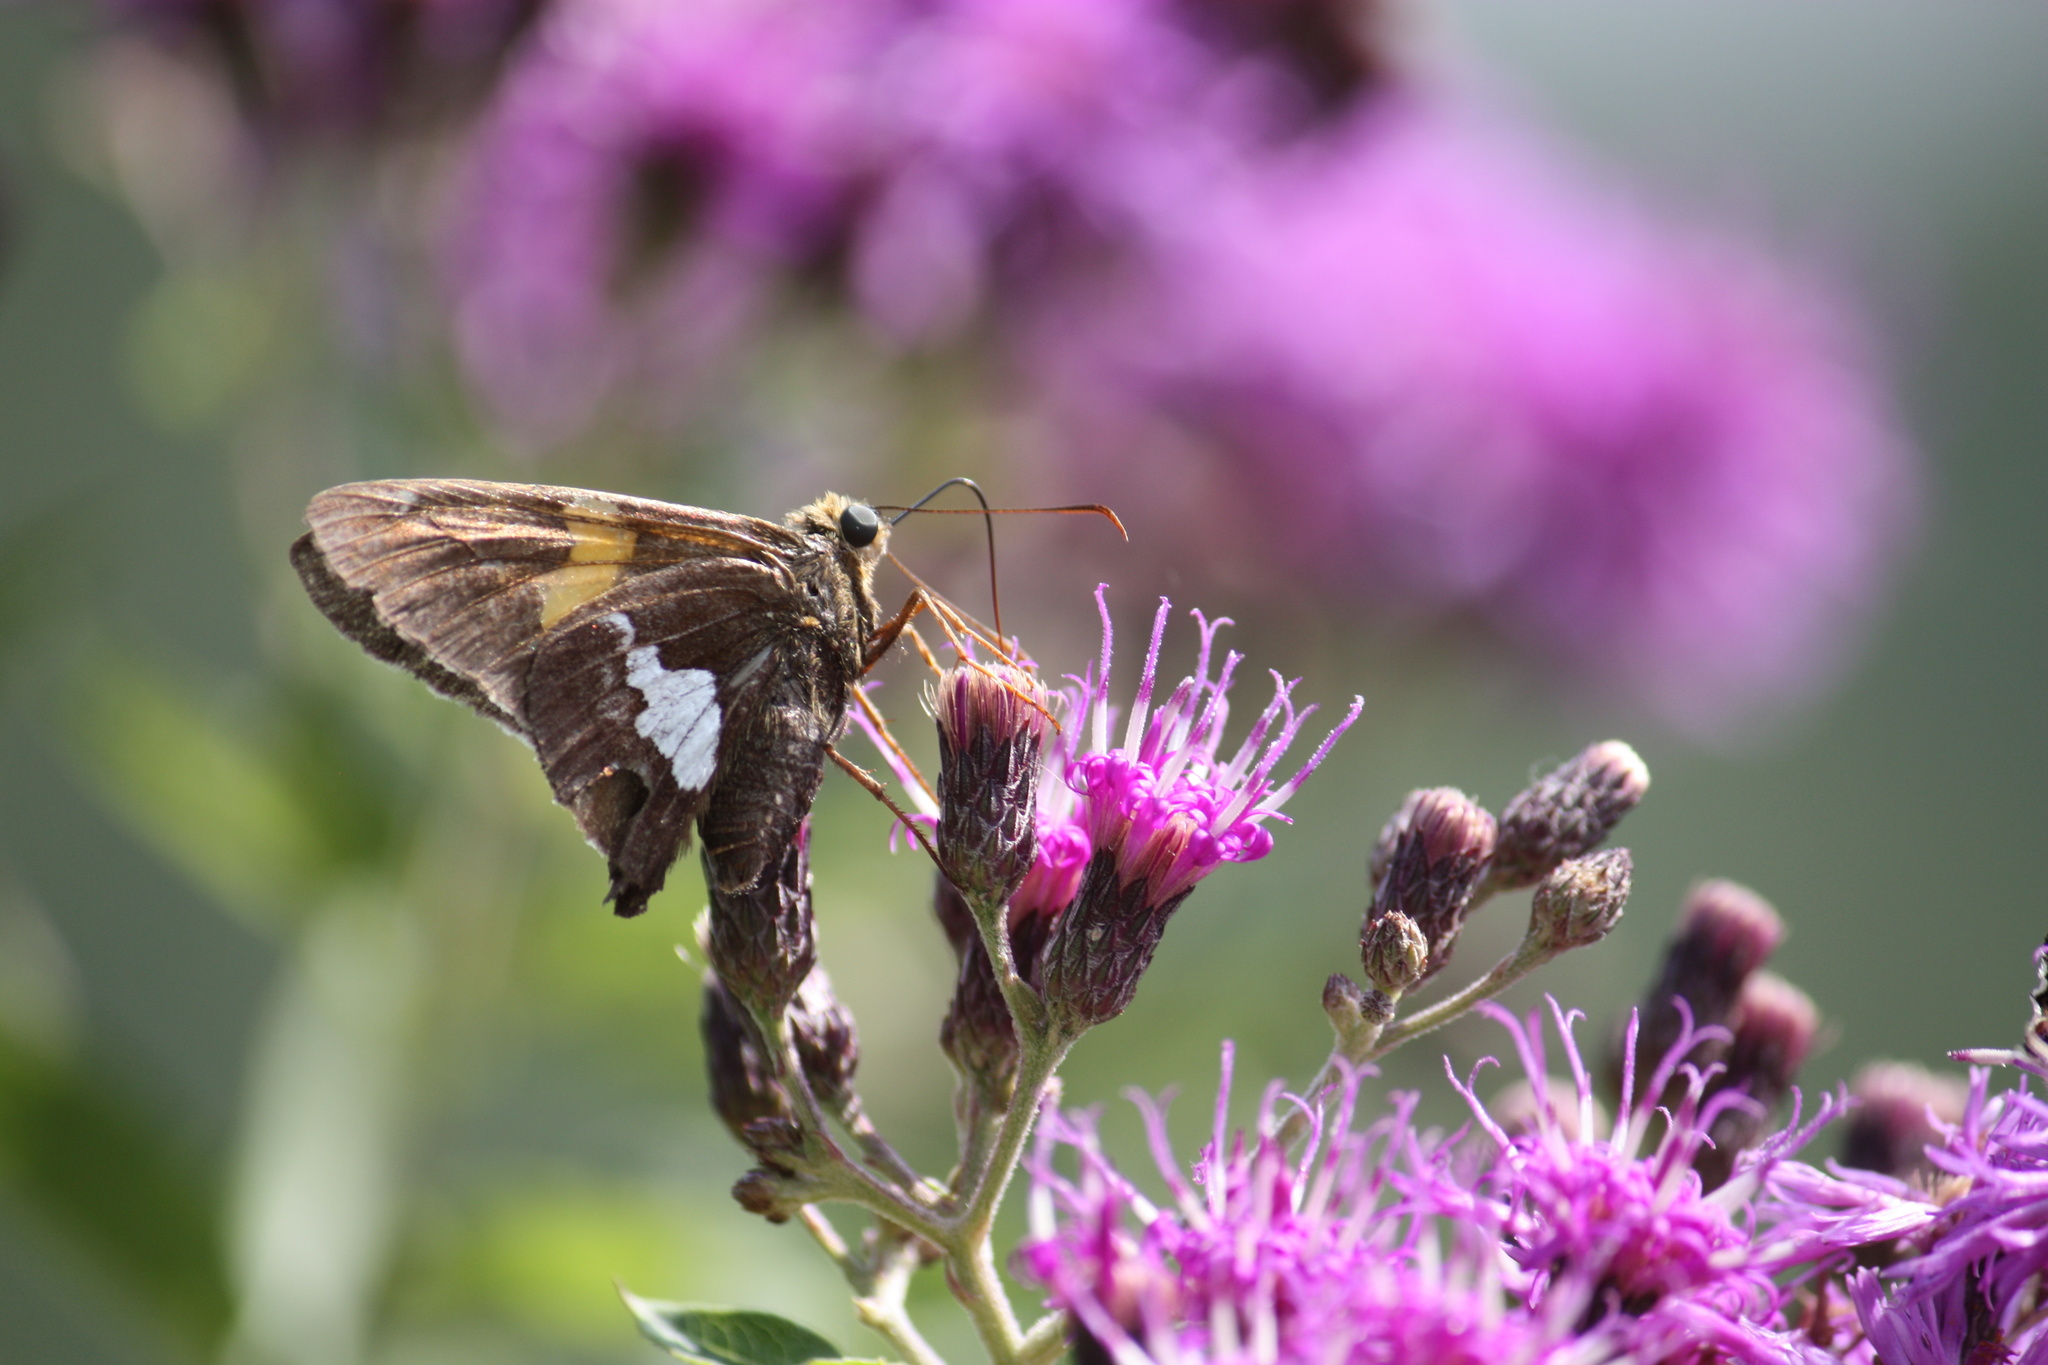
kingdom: Animalia
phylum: Arthropoda
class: Insecta
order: Lepidoptera
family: Hesperiidae
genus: Epargyreus
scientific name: Epargyreus clarus
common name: Silver-spotted skipper
